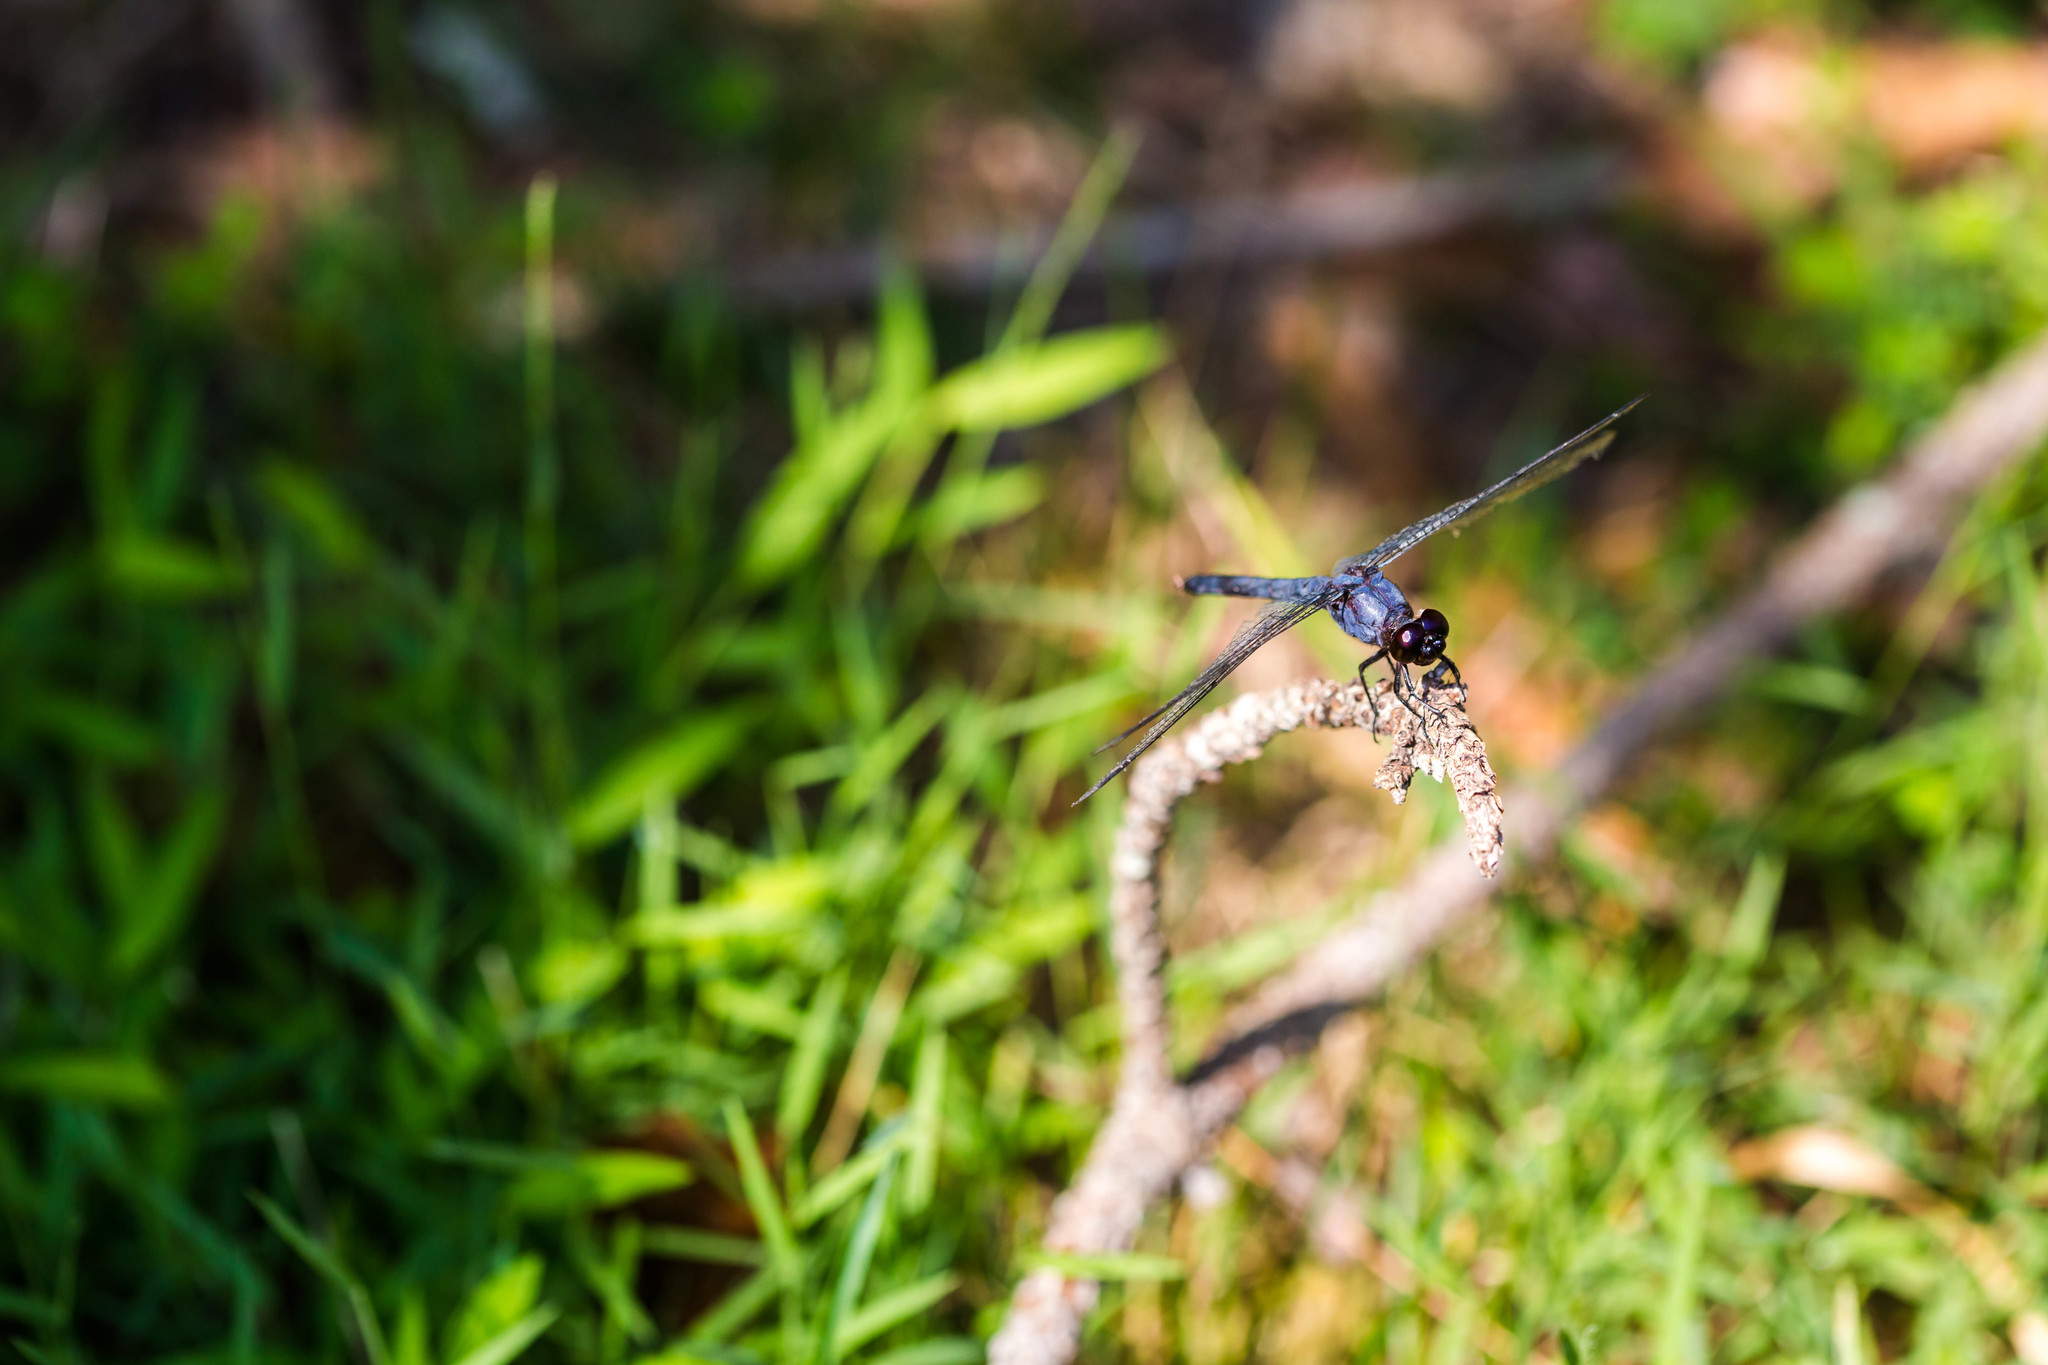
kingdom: Animalia
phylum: Arthropoda
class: Insecta
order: Odonata
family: Libellulidae
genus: Libellula
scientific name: Libellula incesta
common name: Slaty skimmer
